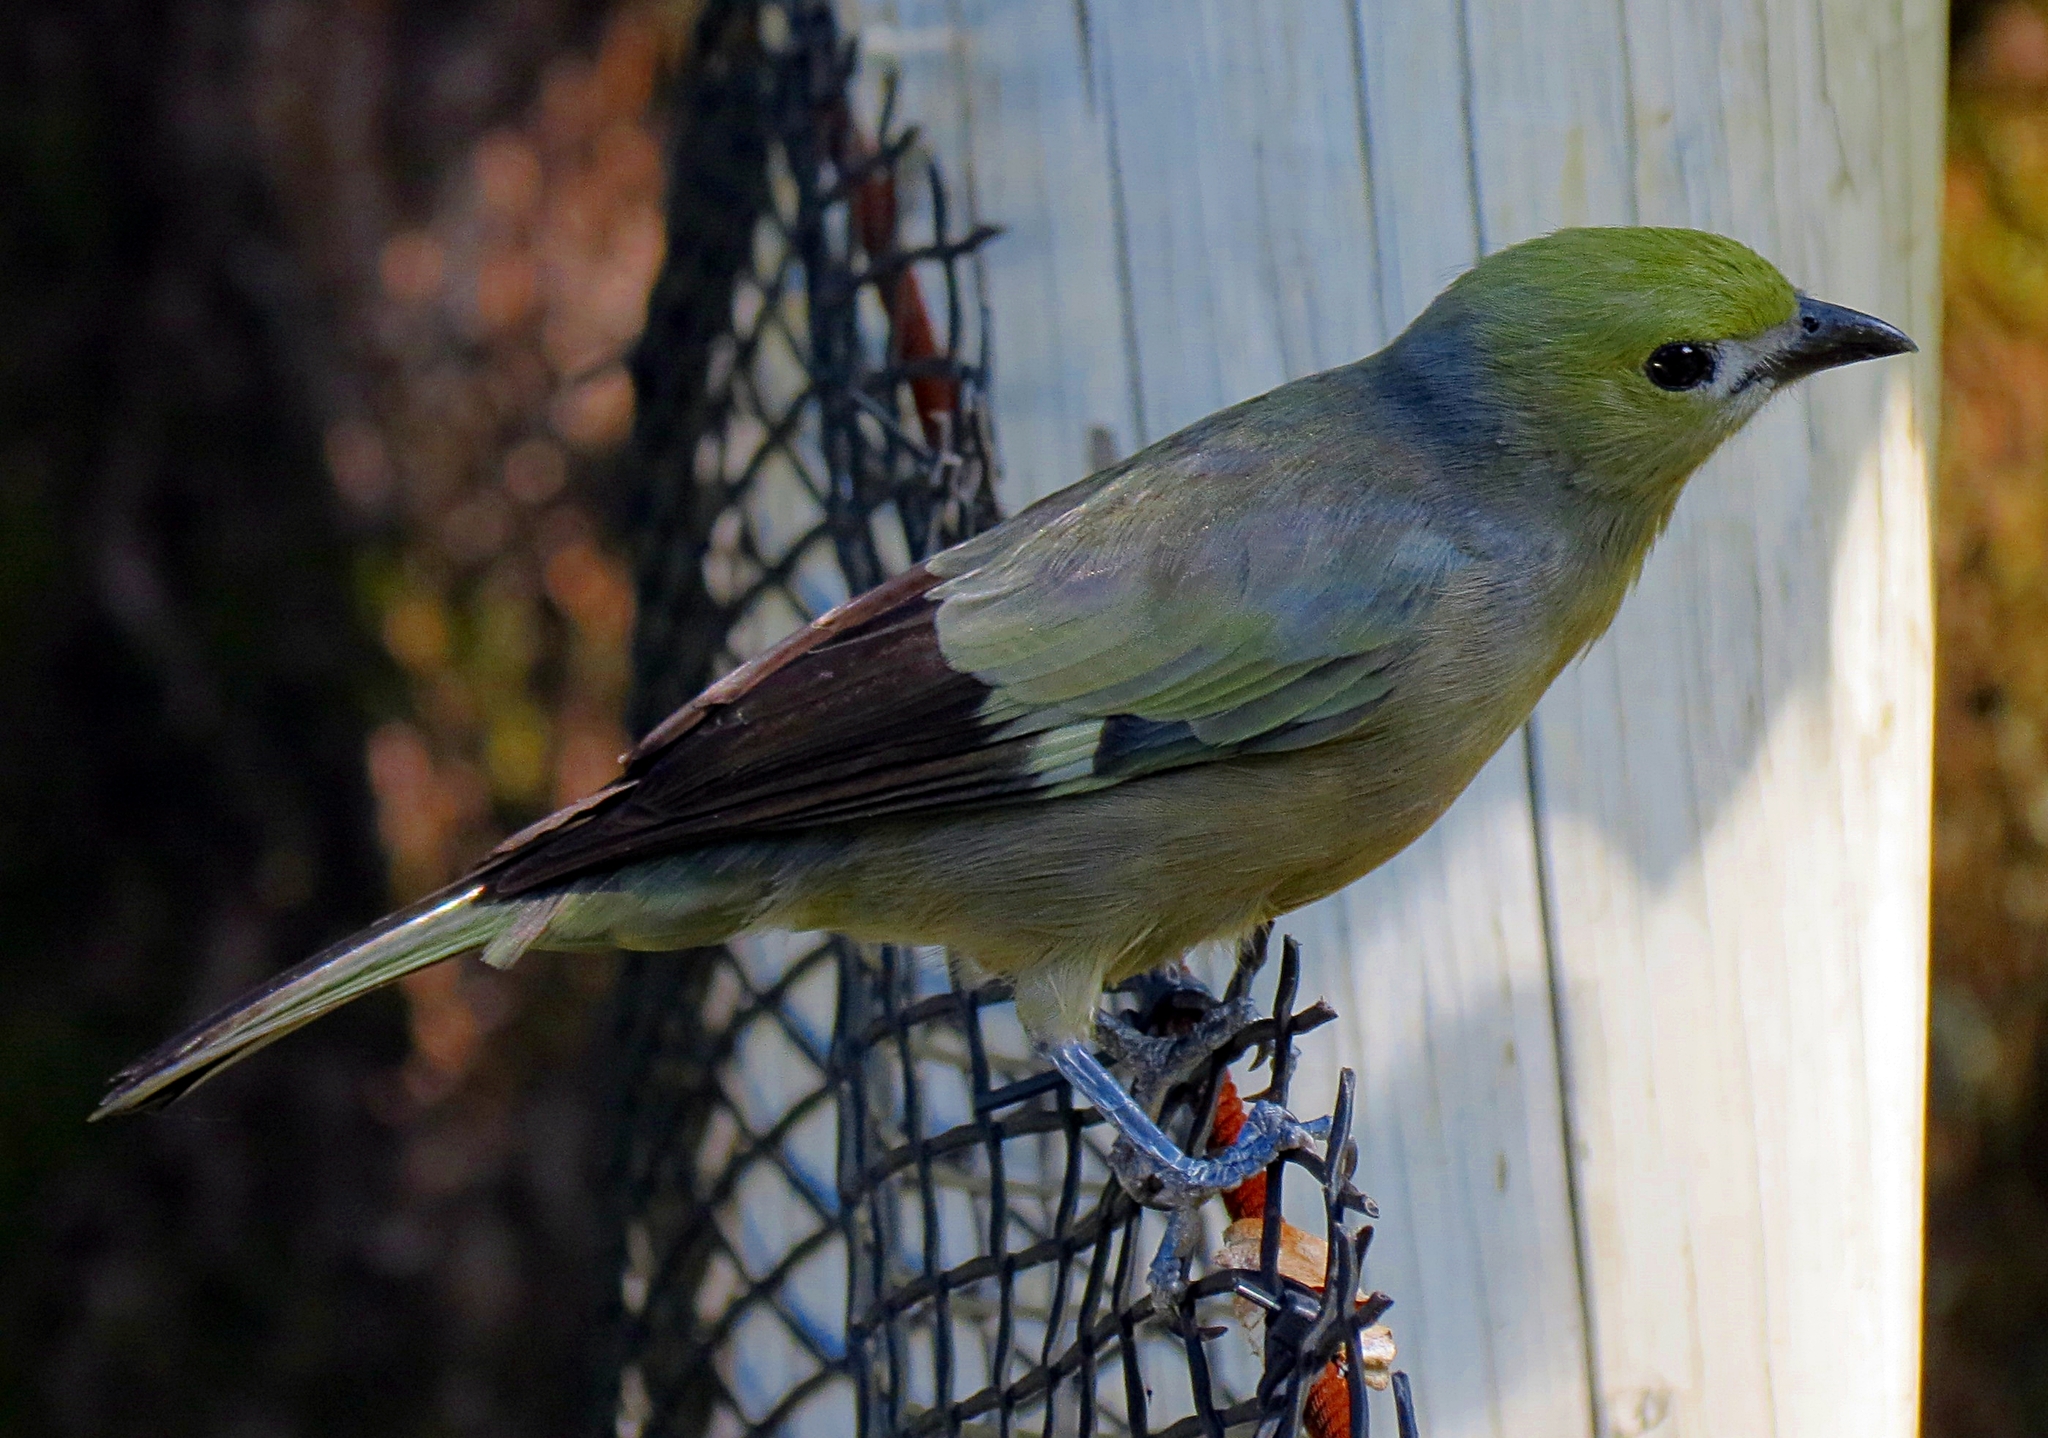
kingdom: Animalia
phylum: Chordata
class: Aves
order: Passeriformes
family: Thraupidae
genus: Thraupis
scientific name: Thraupis palmarum
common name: Palm tanager
